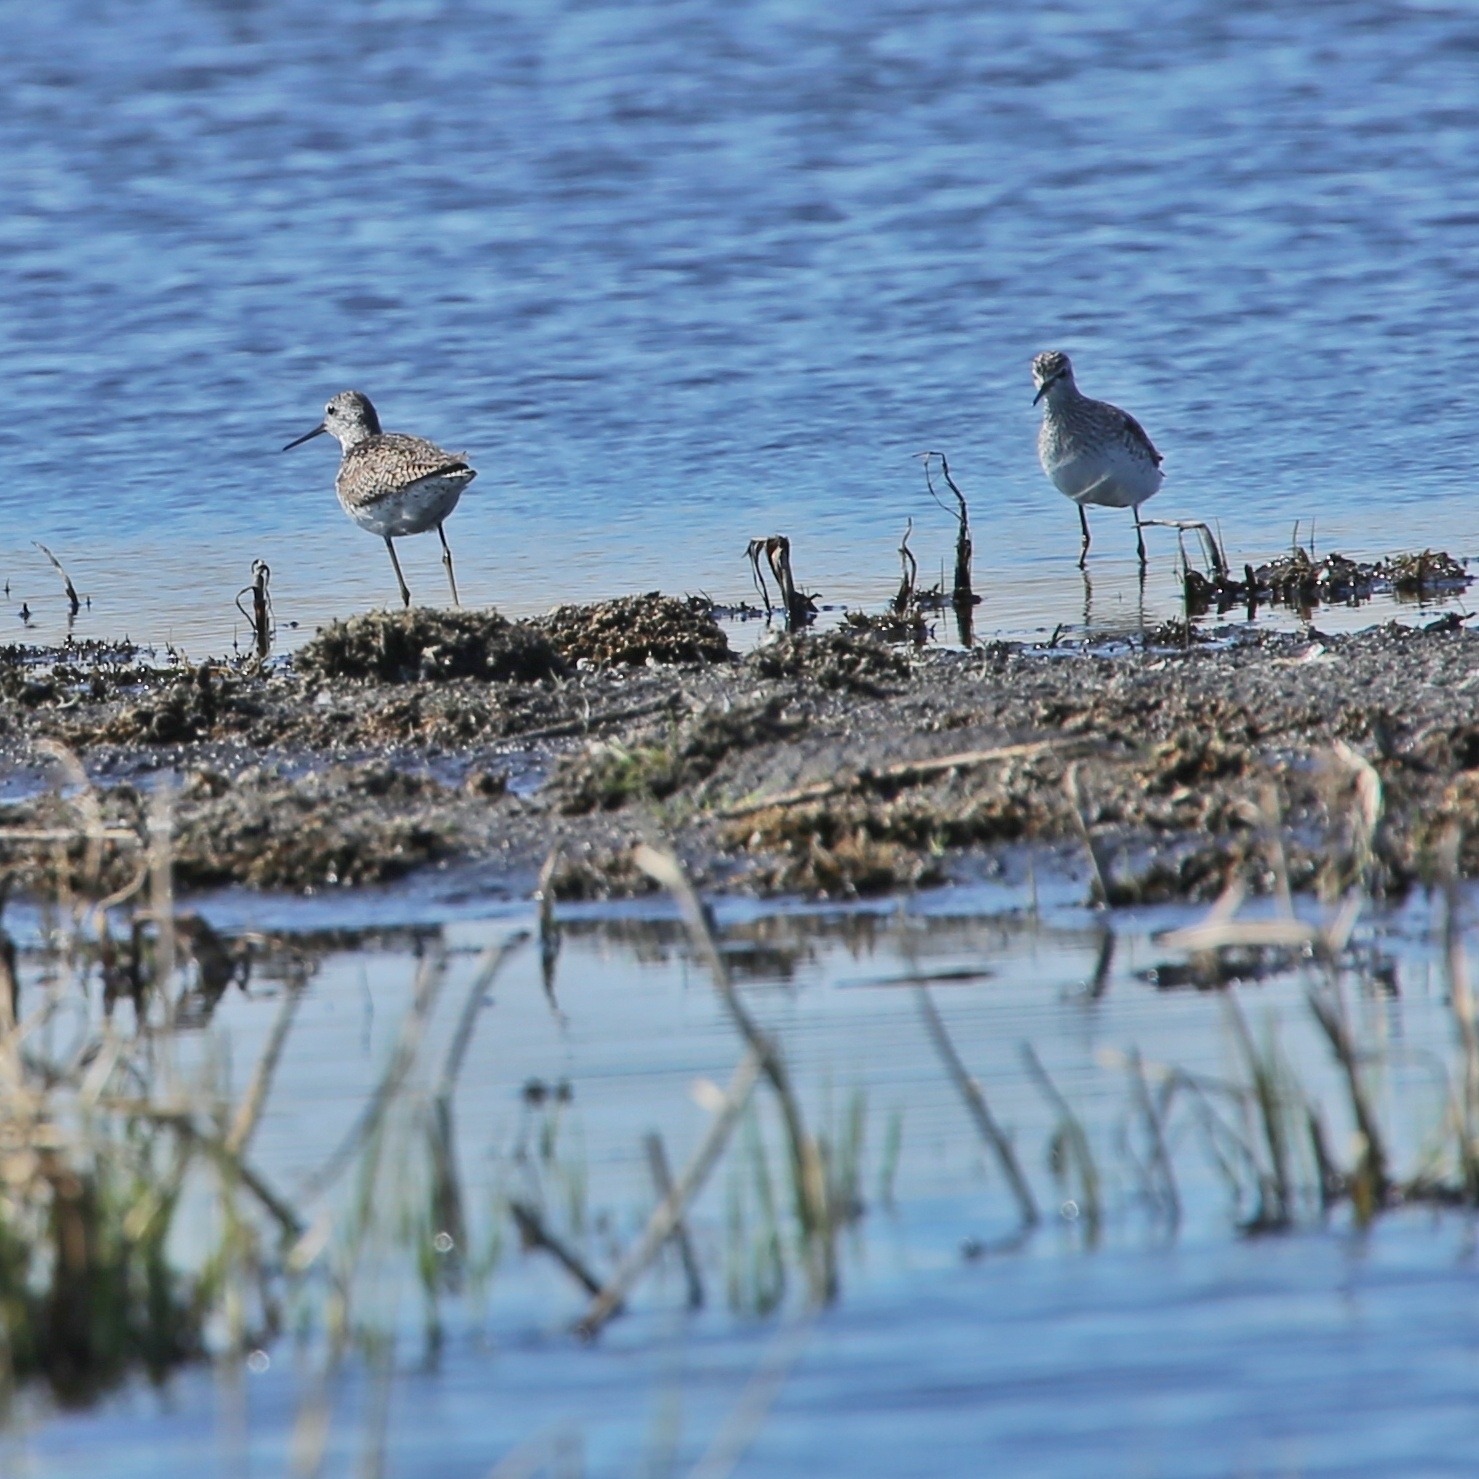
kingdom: Animalia
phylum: Chordata
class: Aves
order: Charadriiformes
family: Scolopacidae
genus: Tringa
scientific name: Tringa stagnatilis
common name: Marsh sandpiper
